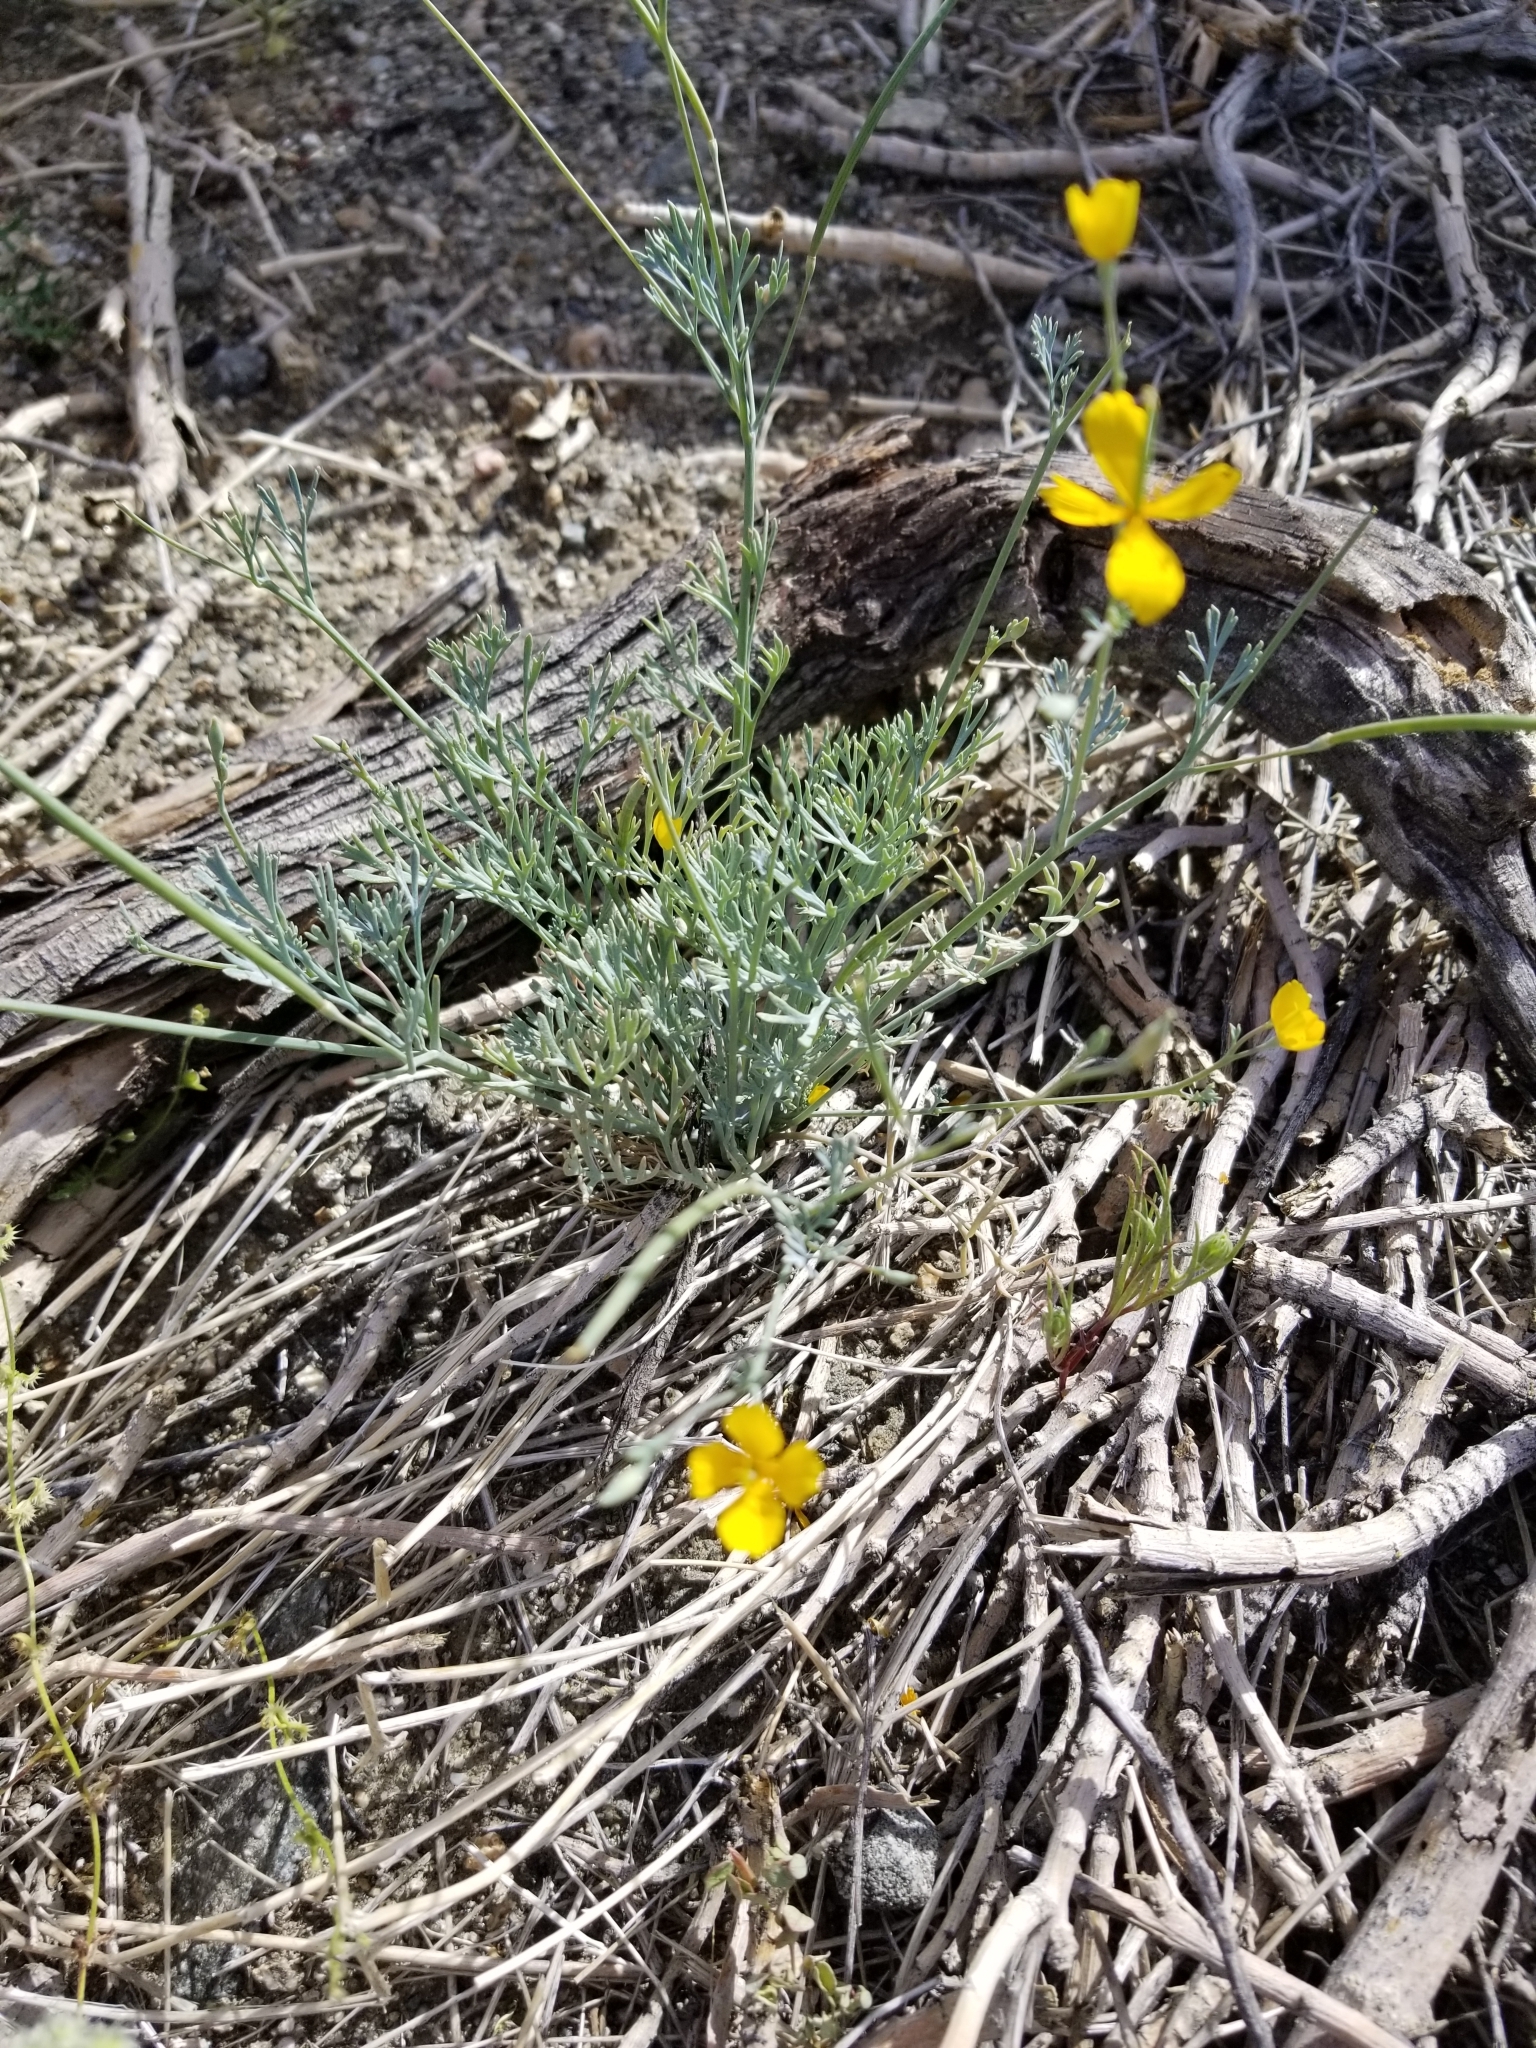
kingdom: Plantae
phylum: Tracheophyta
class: Magnoliopsida
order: Ranunculales
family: Papaveraceae
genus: Eschscholzia
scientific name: Eschscholzia minutiflora
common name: Small-flower california-poppy
